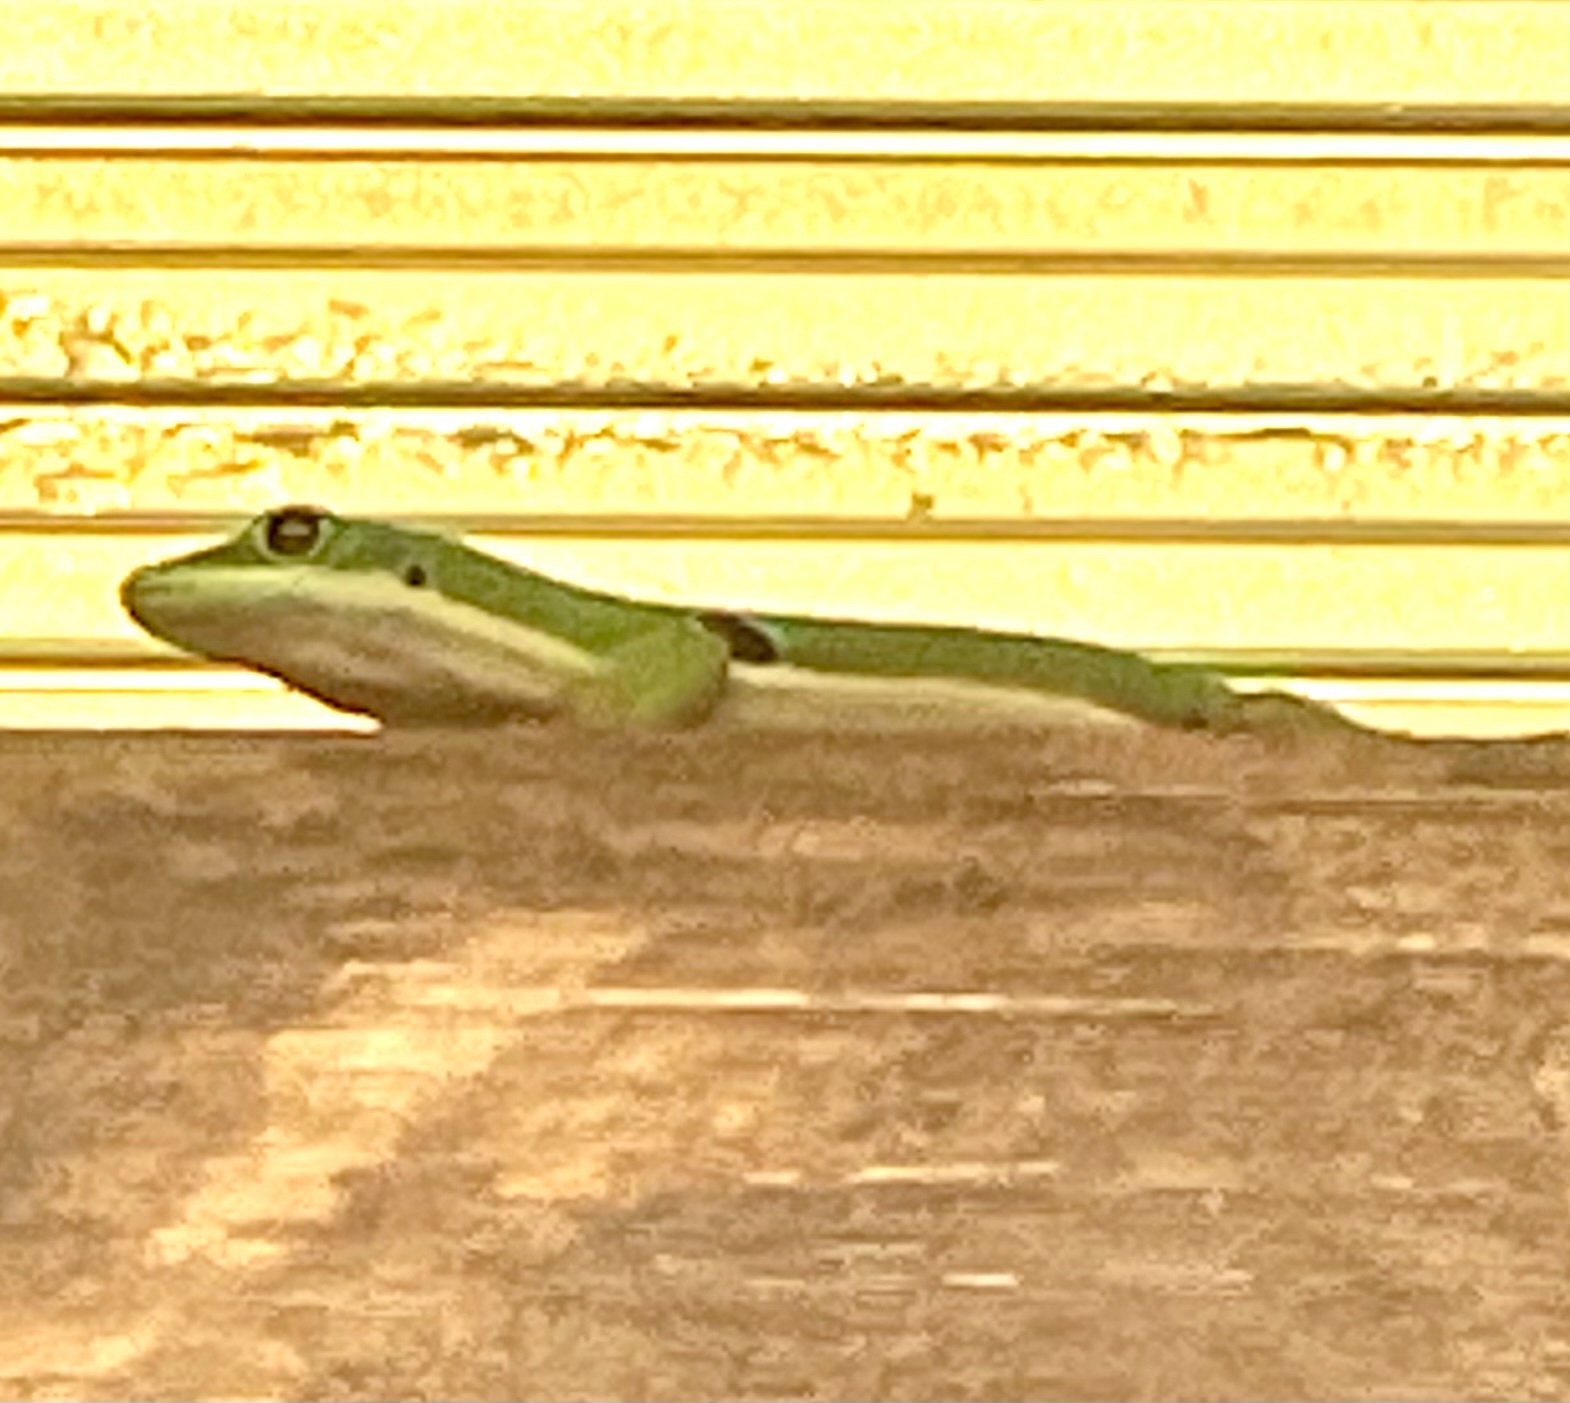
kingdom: Animalia
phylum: Chordata
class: Squamata
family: Gekkonidae
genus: Phelsuma
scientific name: Phelsuma quadriocellata
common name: Peacock day gecko
